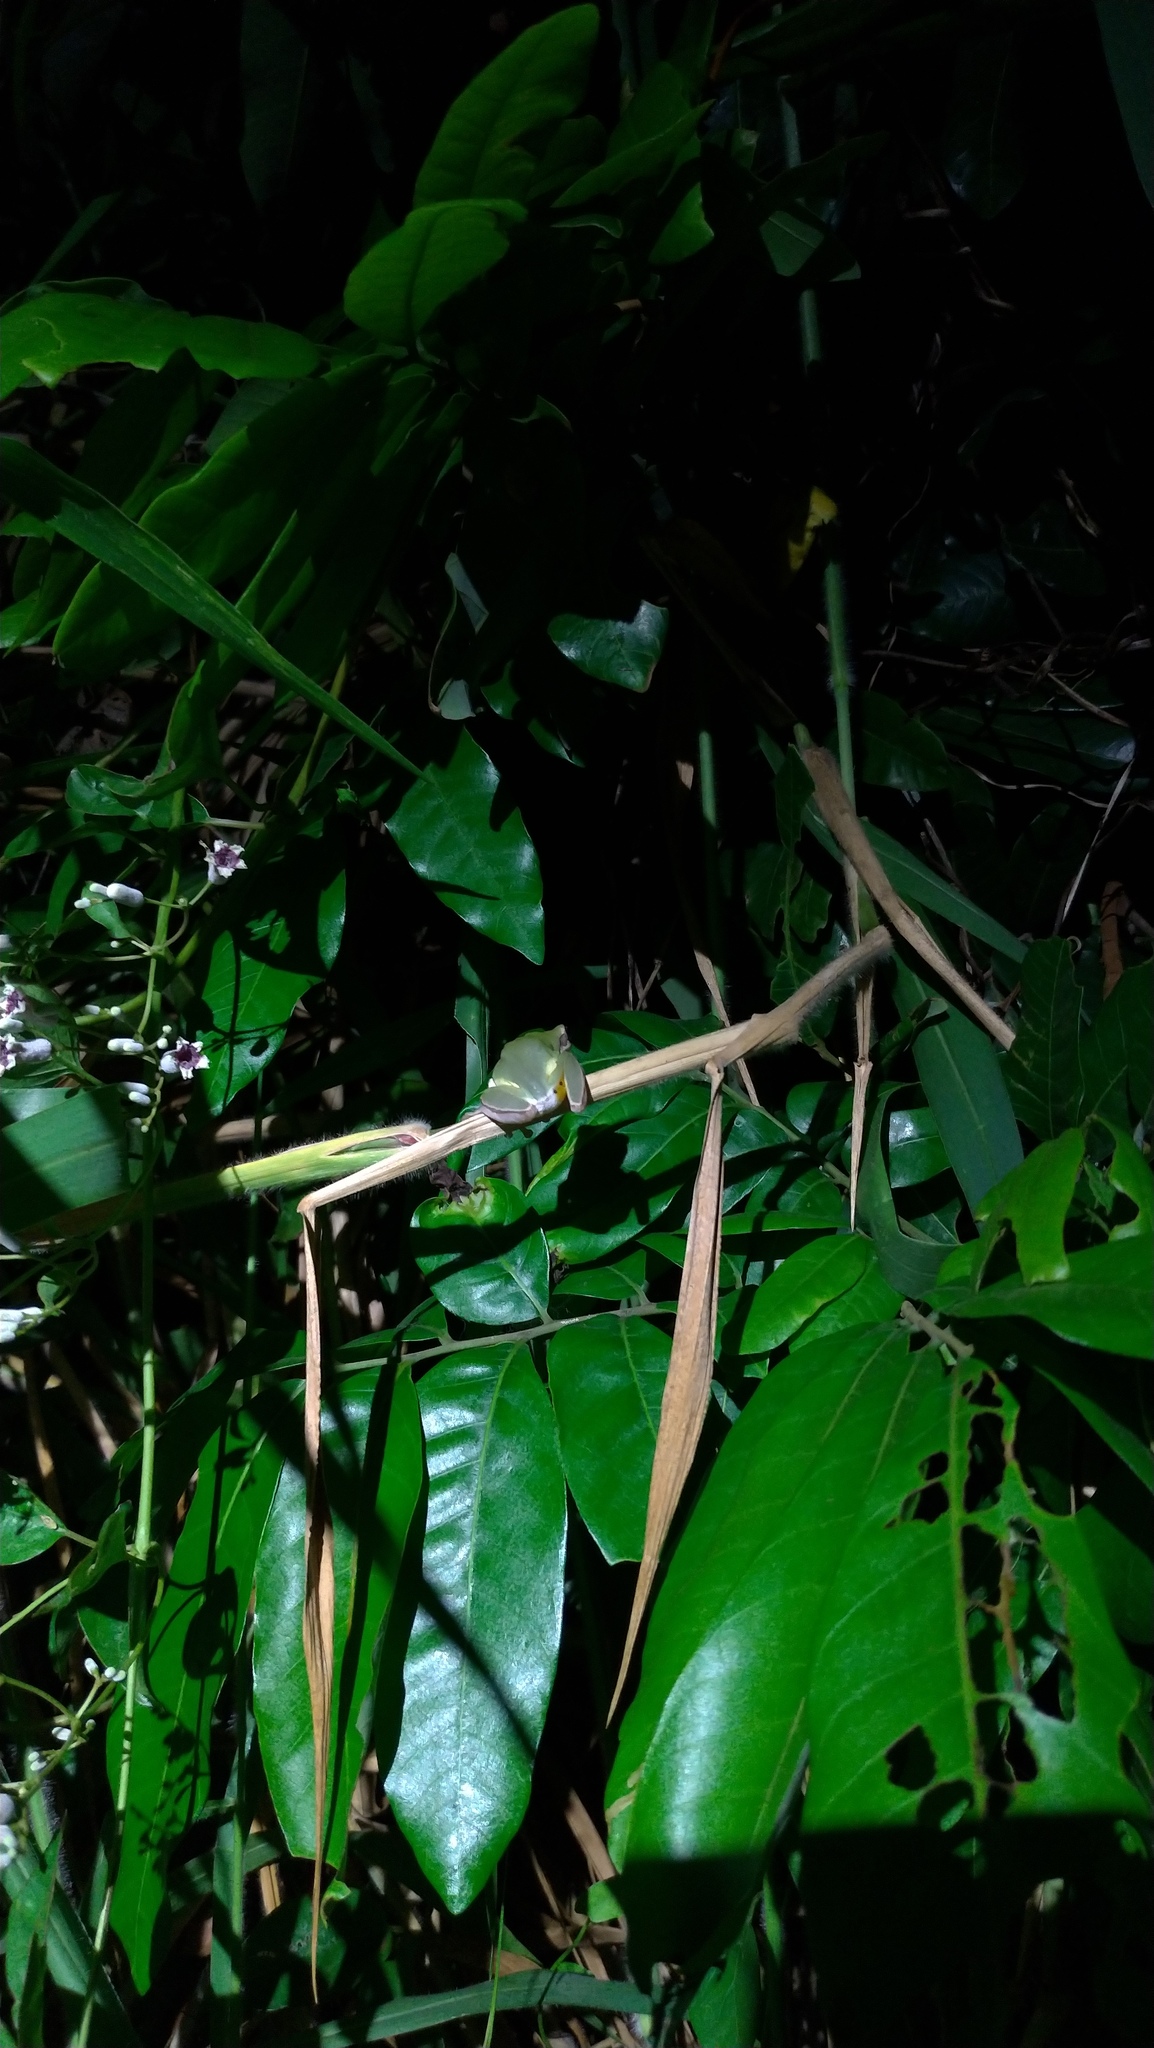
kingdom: Animalia
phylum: Chordata
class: Amphibia
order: Anura
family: Hylidae
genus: Hyla
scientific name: Hyla chinensis
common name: Common chinese treefrog
